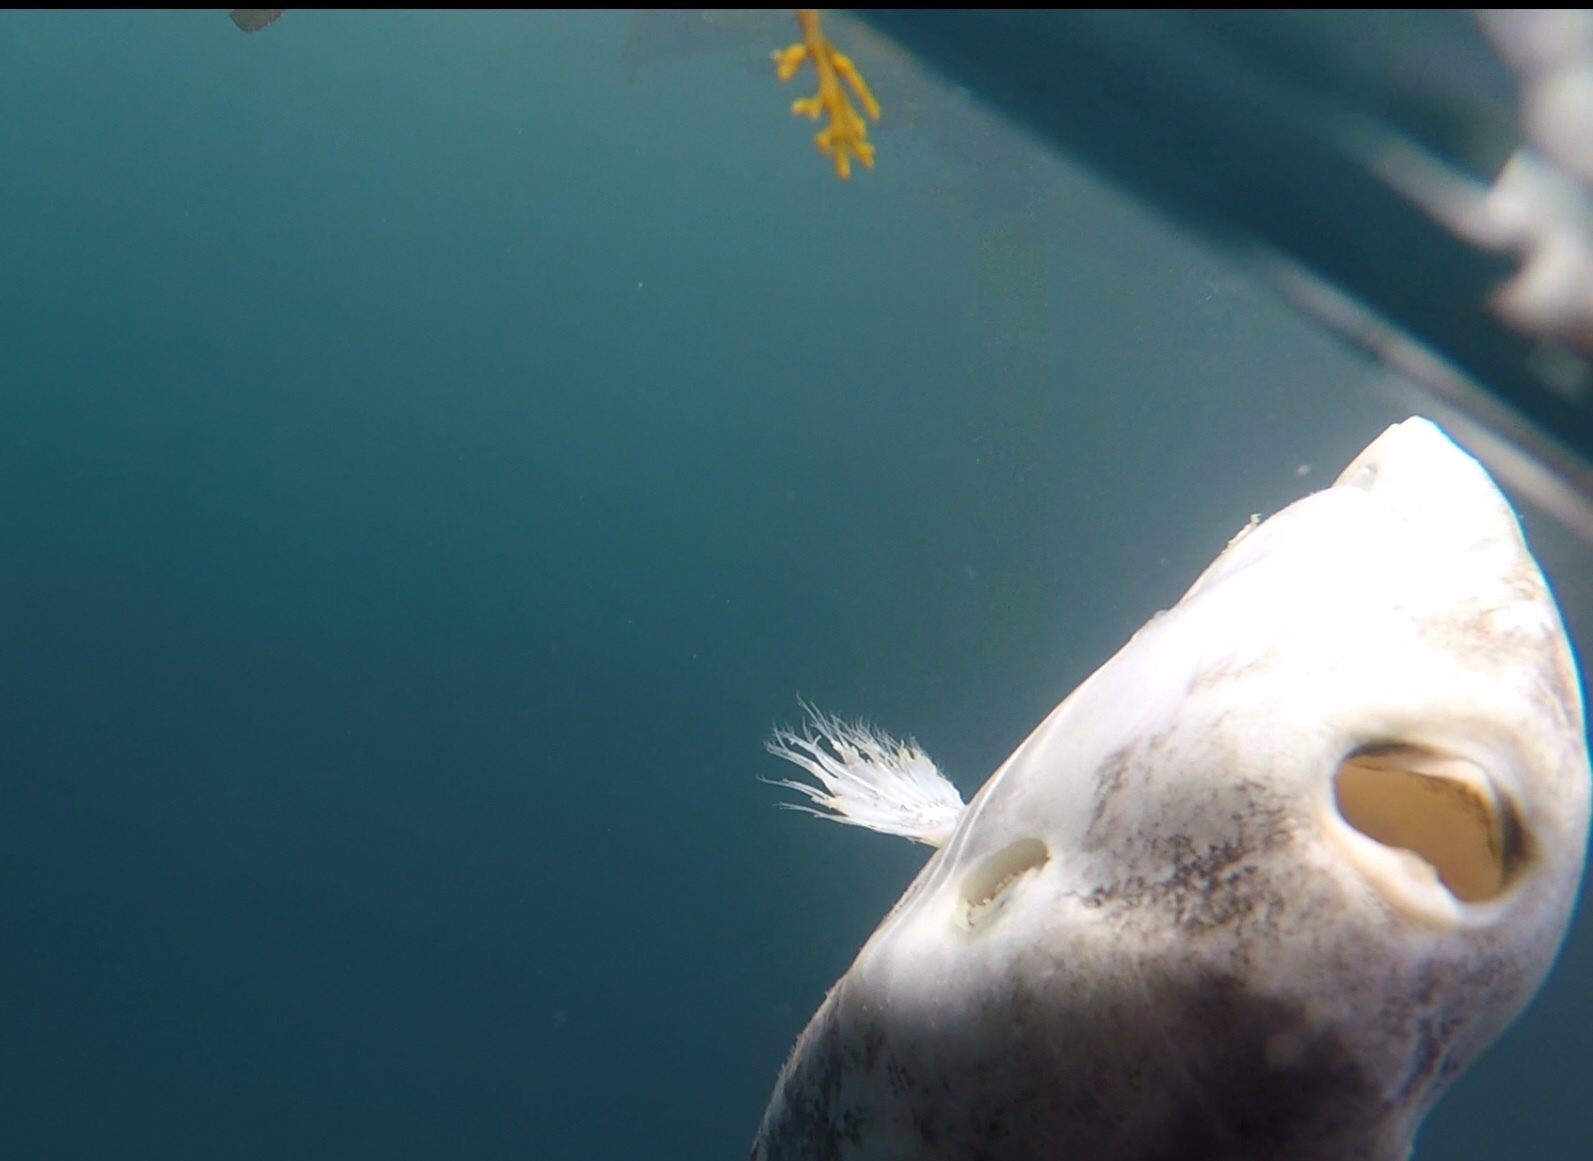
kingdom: Animalia
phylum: Chordata
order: Tetraodontiformes
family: Molidae
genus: Mola
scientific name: Mola mola
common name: Ocean sunfish
